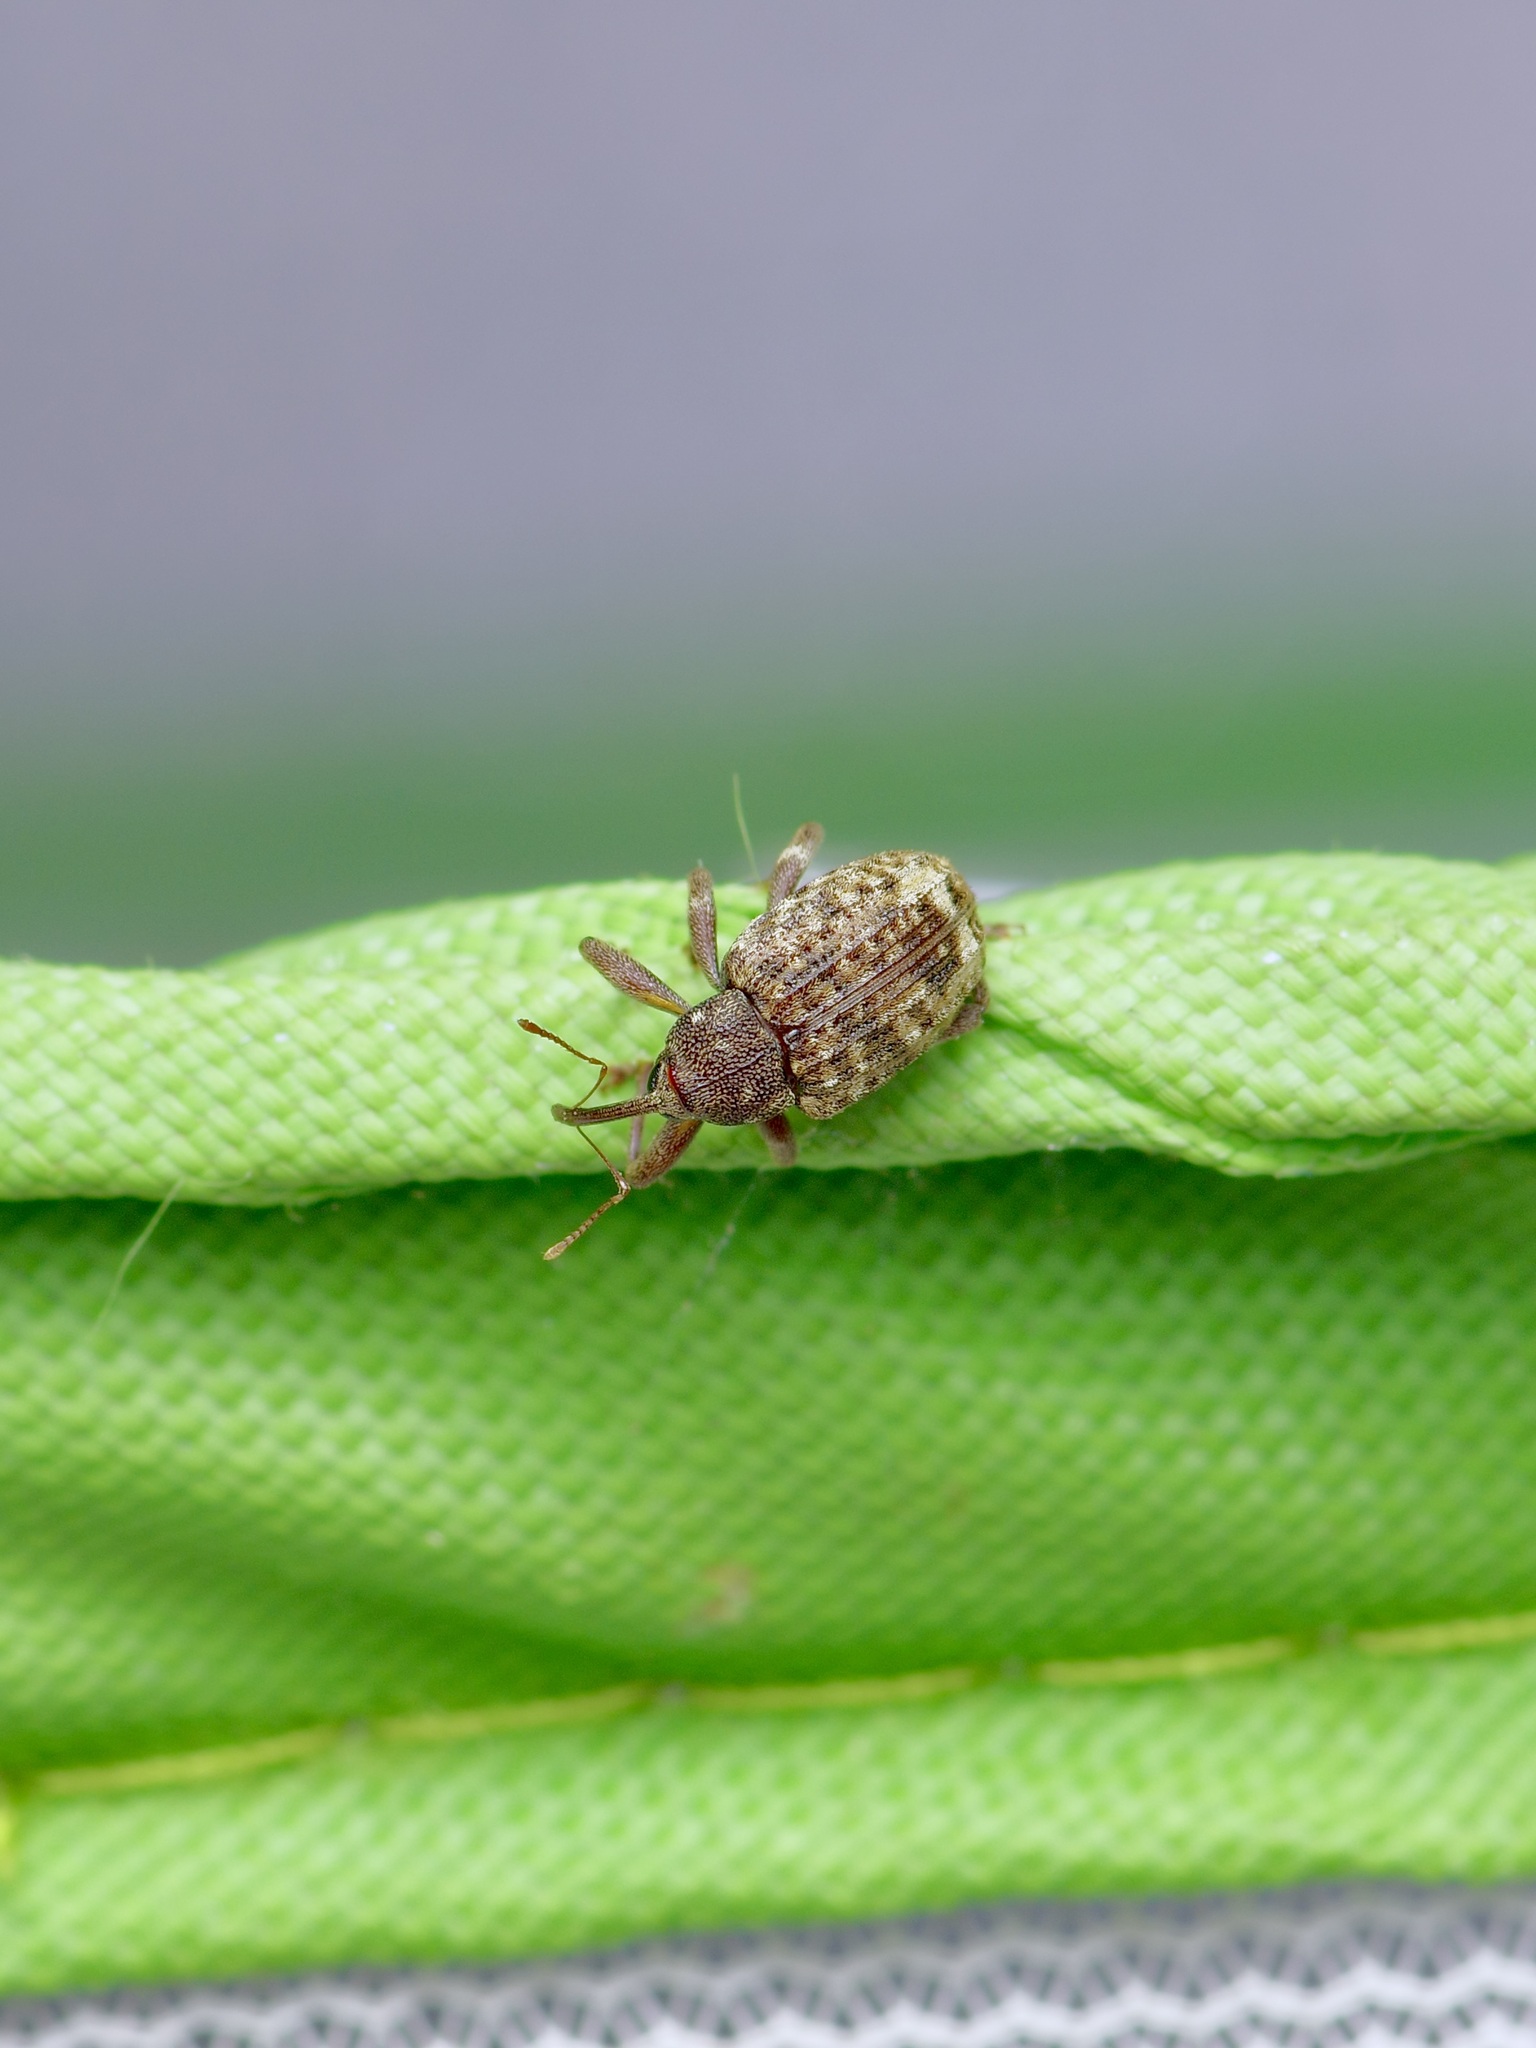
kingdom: Animalia
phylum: Arthropoda
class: Insecta
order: Coleoptera
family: Curculionidae
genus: Conotrachelus
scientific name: Conotrachelus naso
